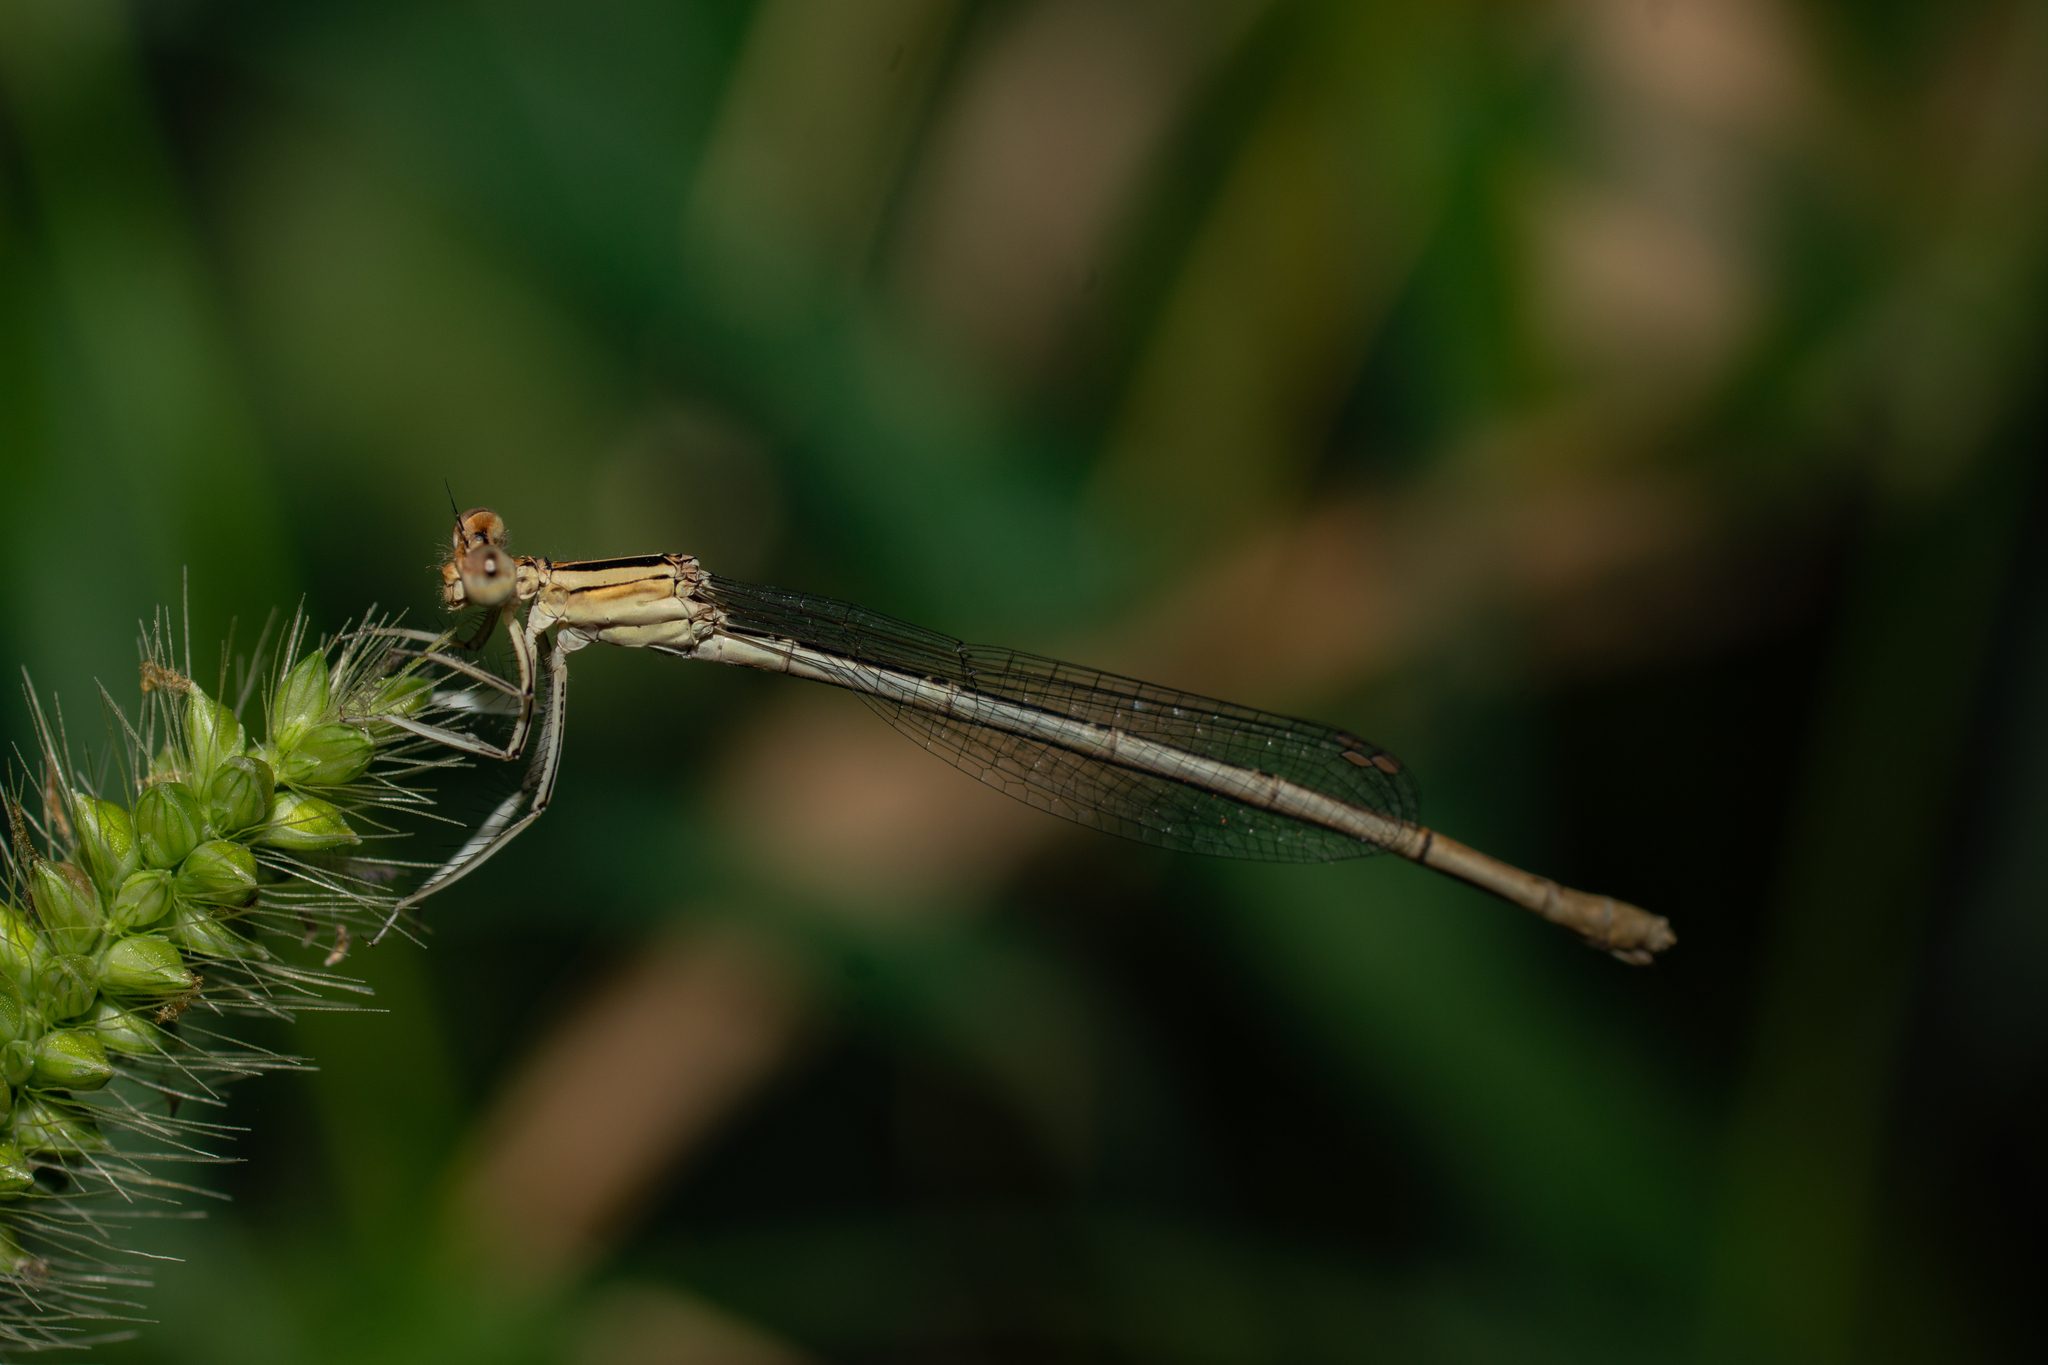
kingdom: Animalia
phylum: Arthropoda
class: Insecta
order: Odonata
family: Platycnemididae
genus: Platycnemis
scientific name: Platycnemis latipes
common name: White featherleg
